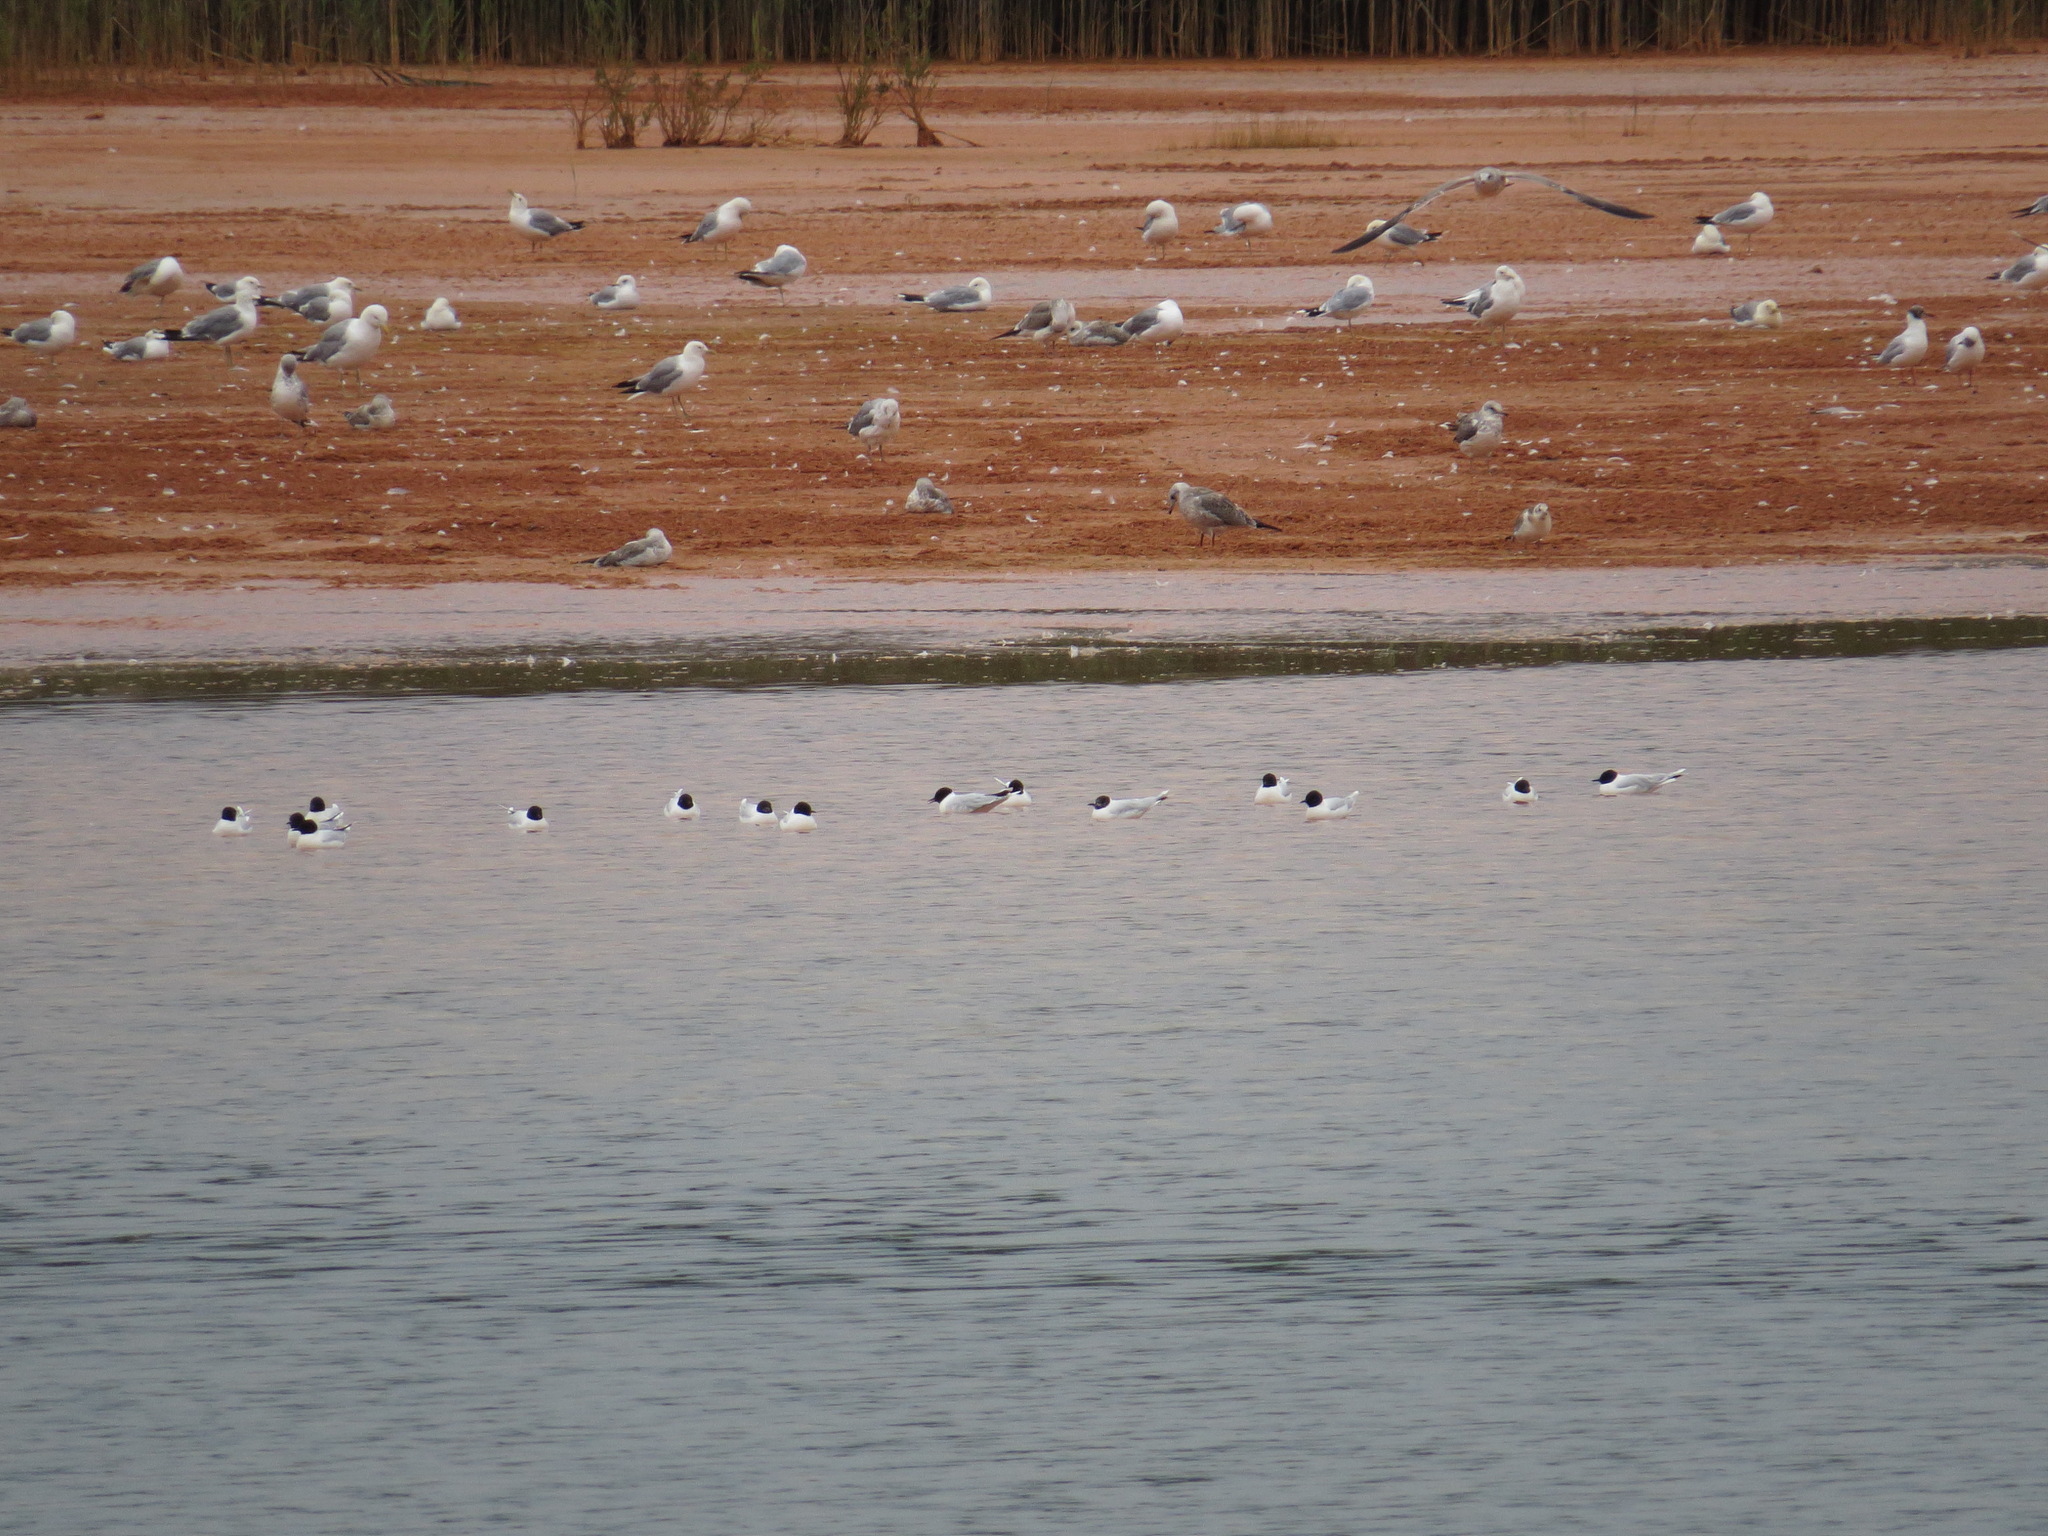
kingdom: Animalia
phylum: Chordata
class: Aves
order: Charadriiformes
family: Laridae
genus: Hydrocoloeus
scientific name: Hydrocoloeus minutus
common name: Little gull
